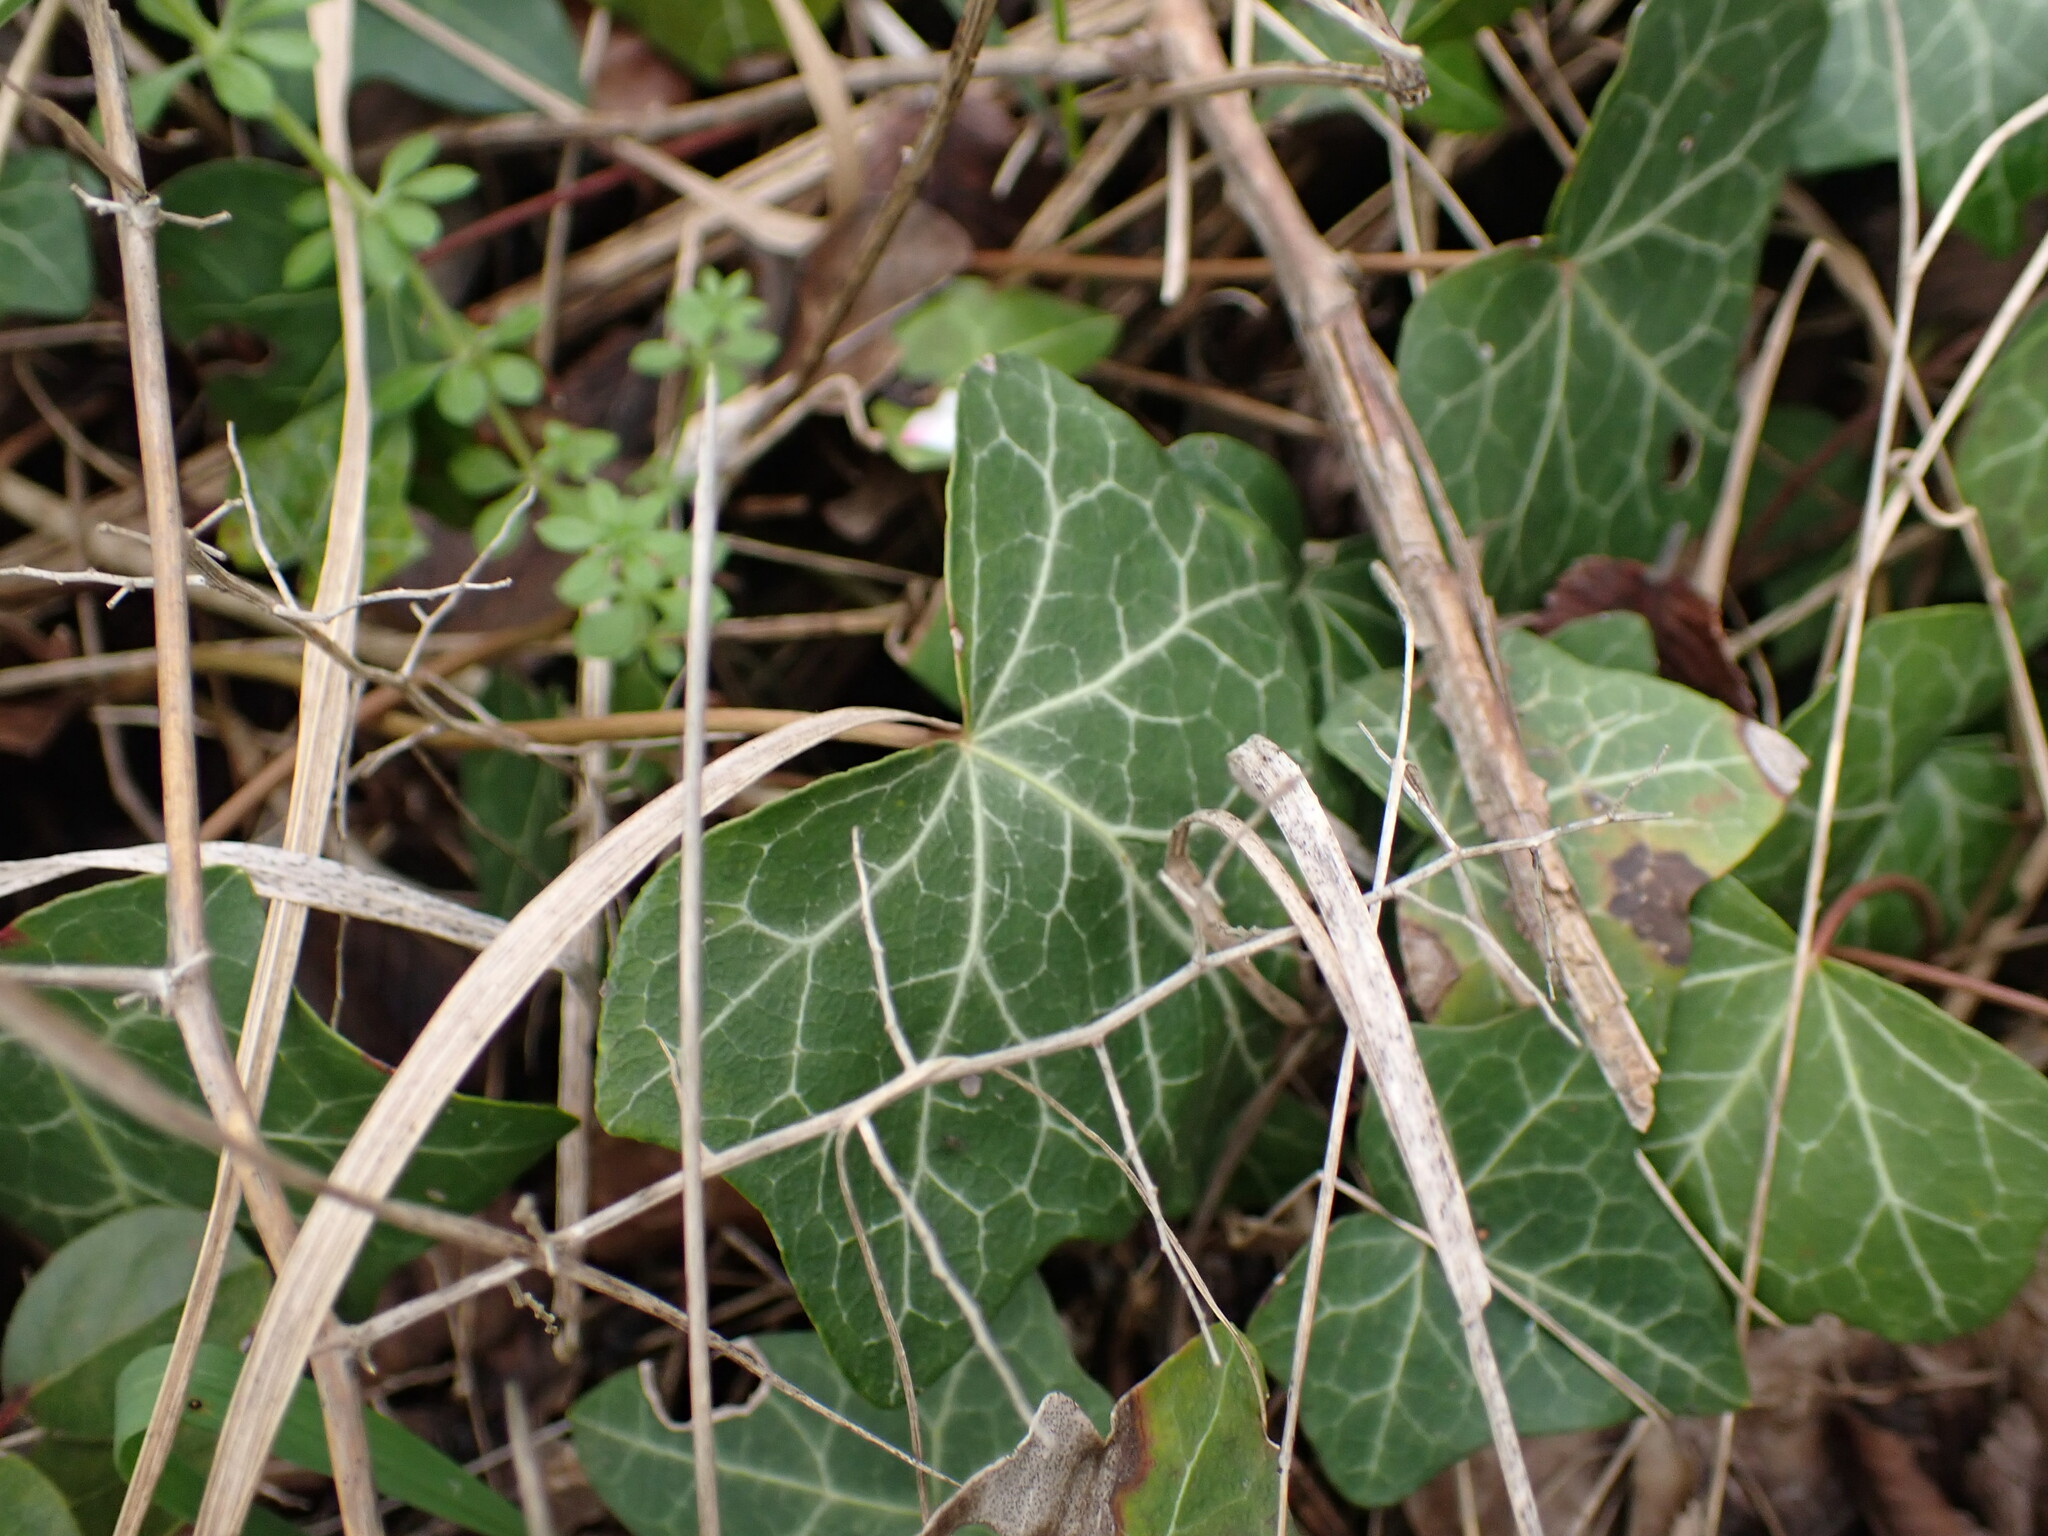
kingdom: Plantae
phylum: Tracheophyta
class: Magnoliopsida
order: Apiales
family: Araliaceae
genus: Hedera
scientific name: Hedera helix
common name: Ivy
